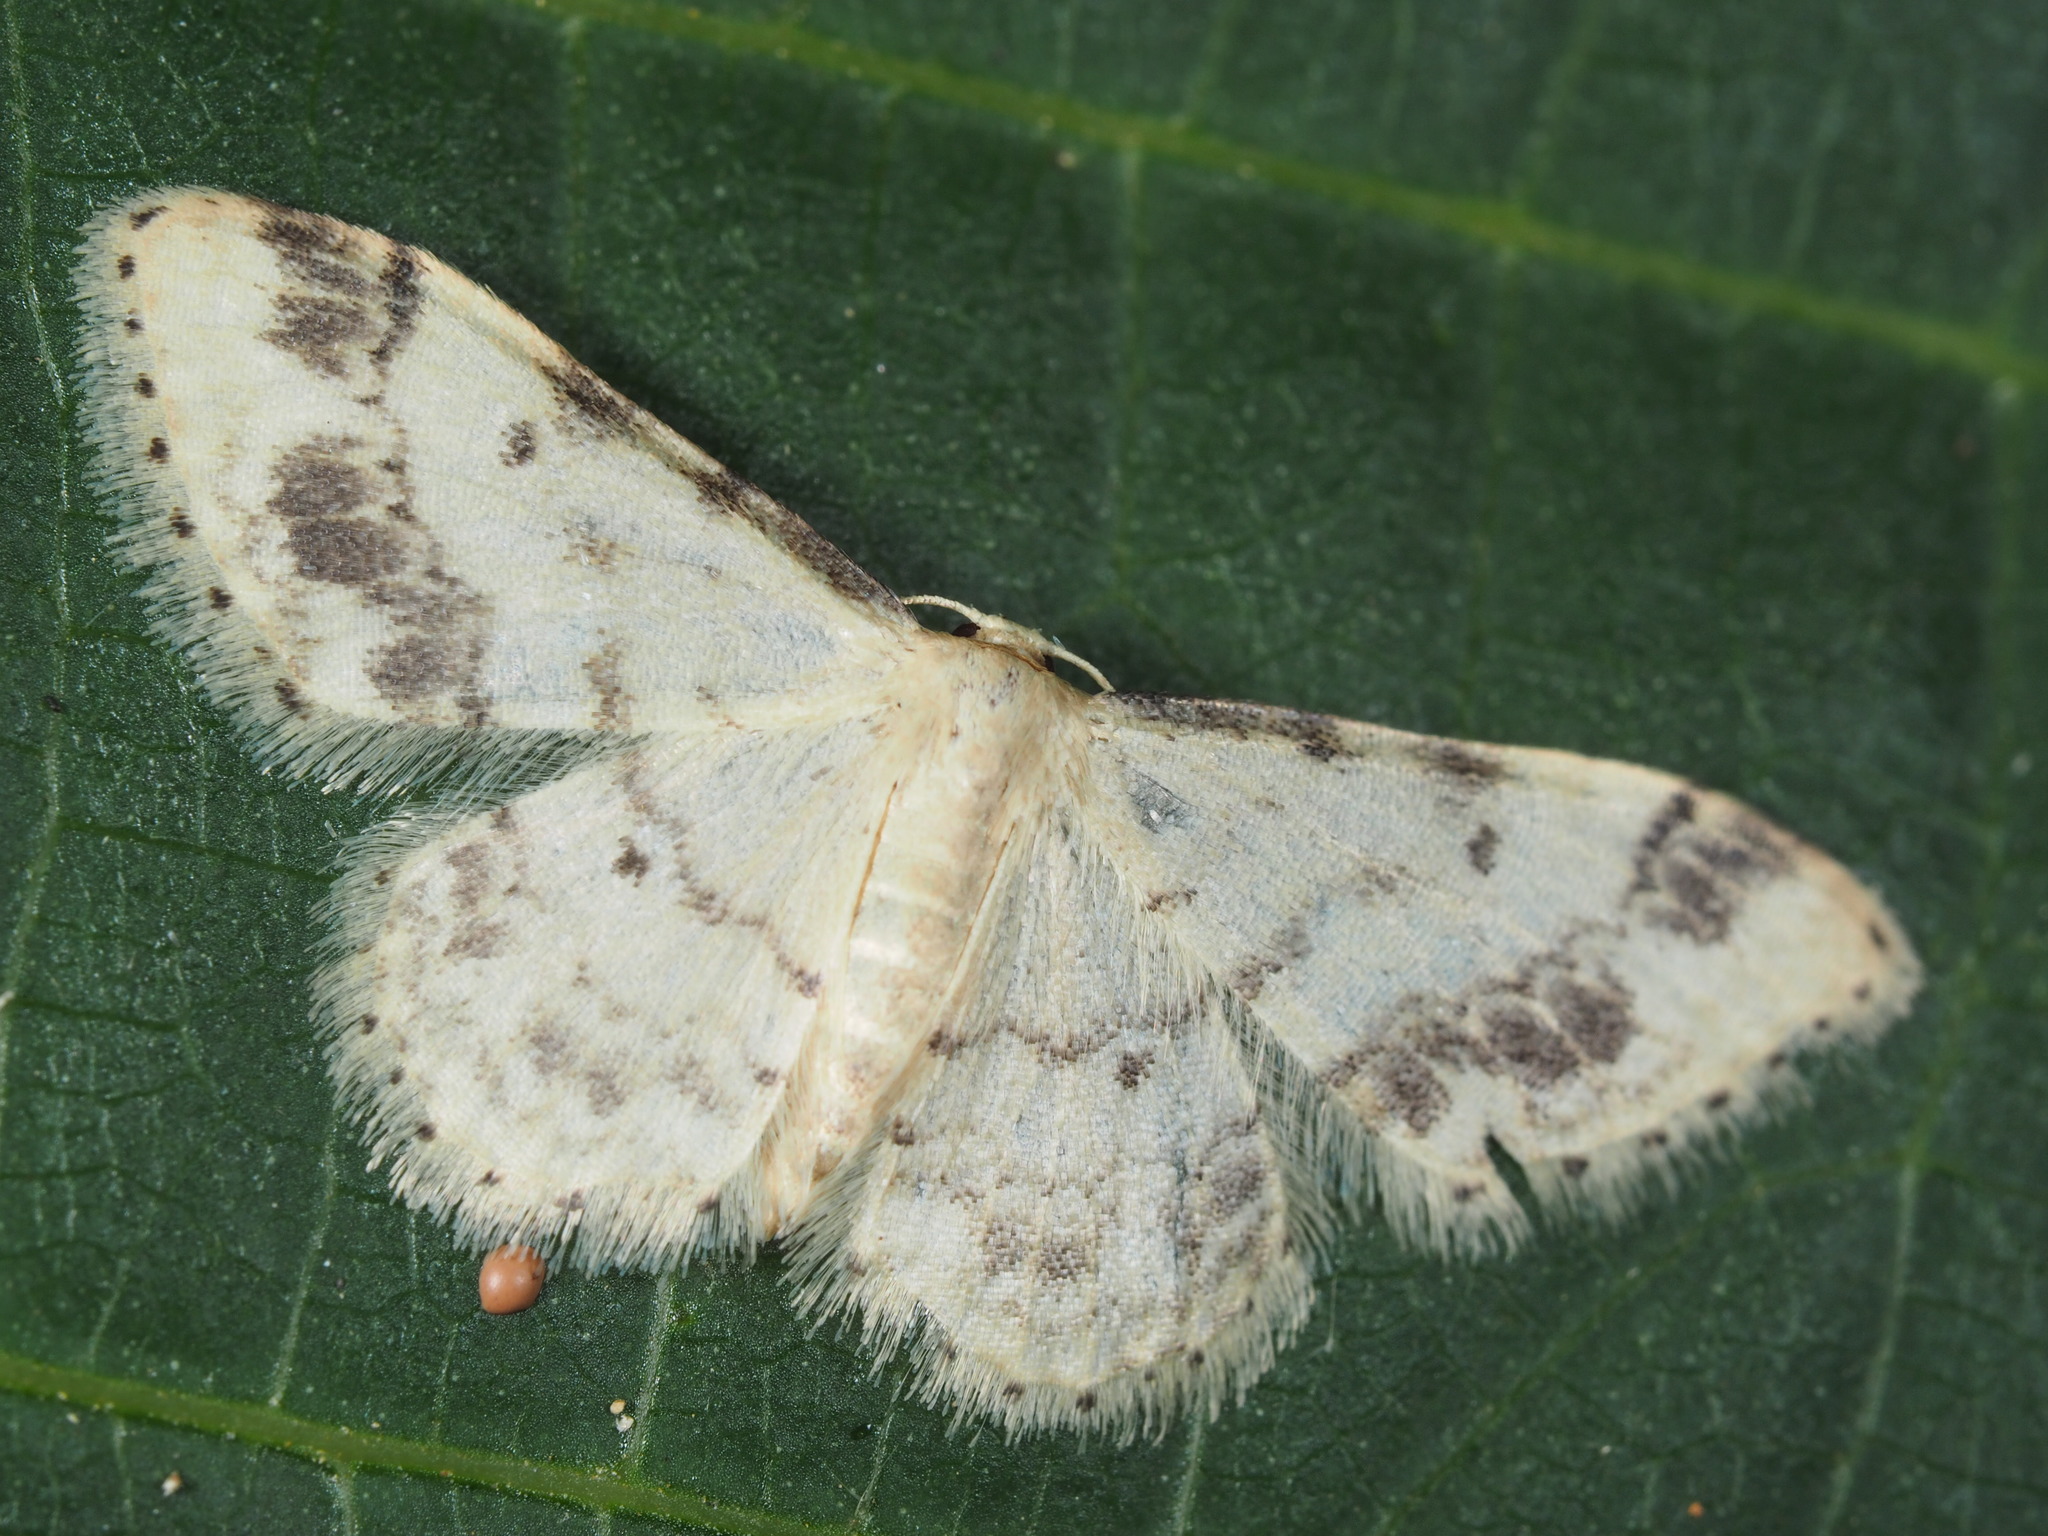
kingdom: Animalia
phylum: Arthropoda
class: Insecta
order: Lepidoptera
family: Geometridae
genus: Idaea
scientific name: Idaea trigeminata
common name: Treble brown spot
